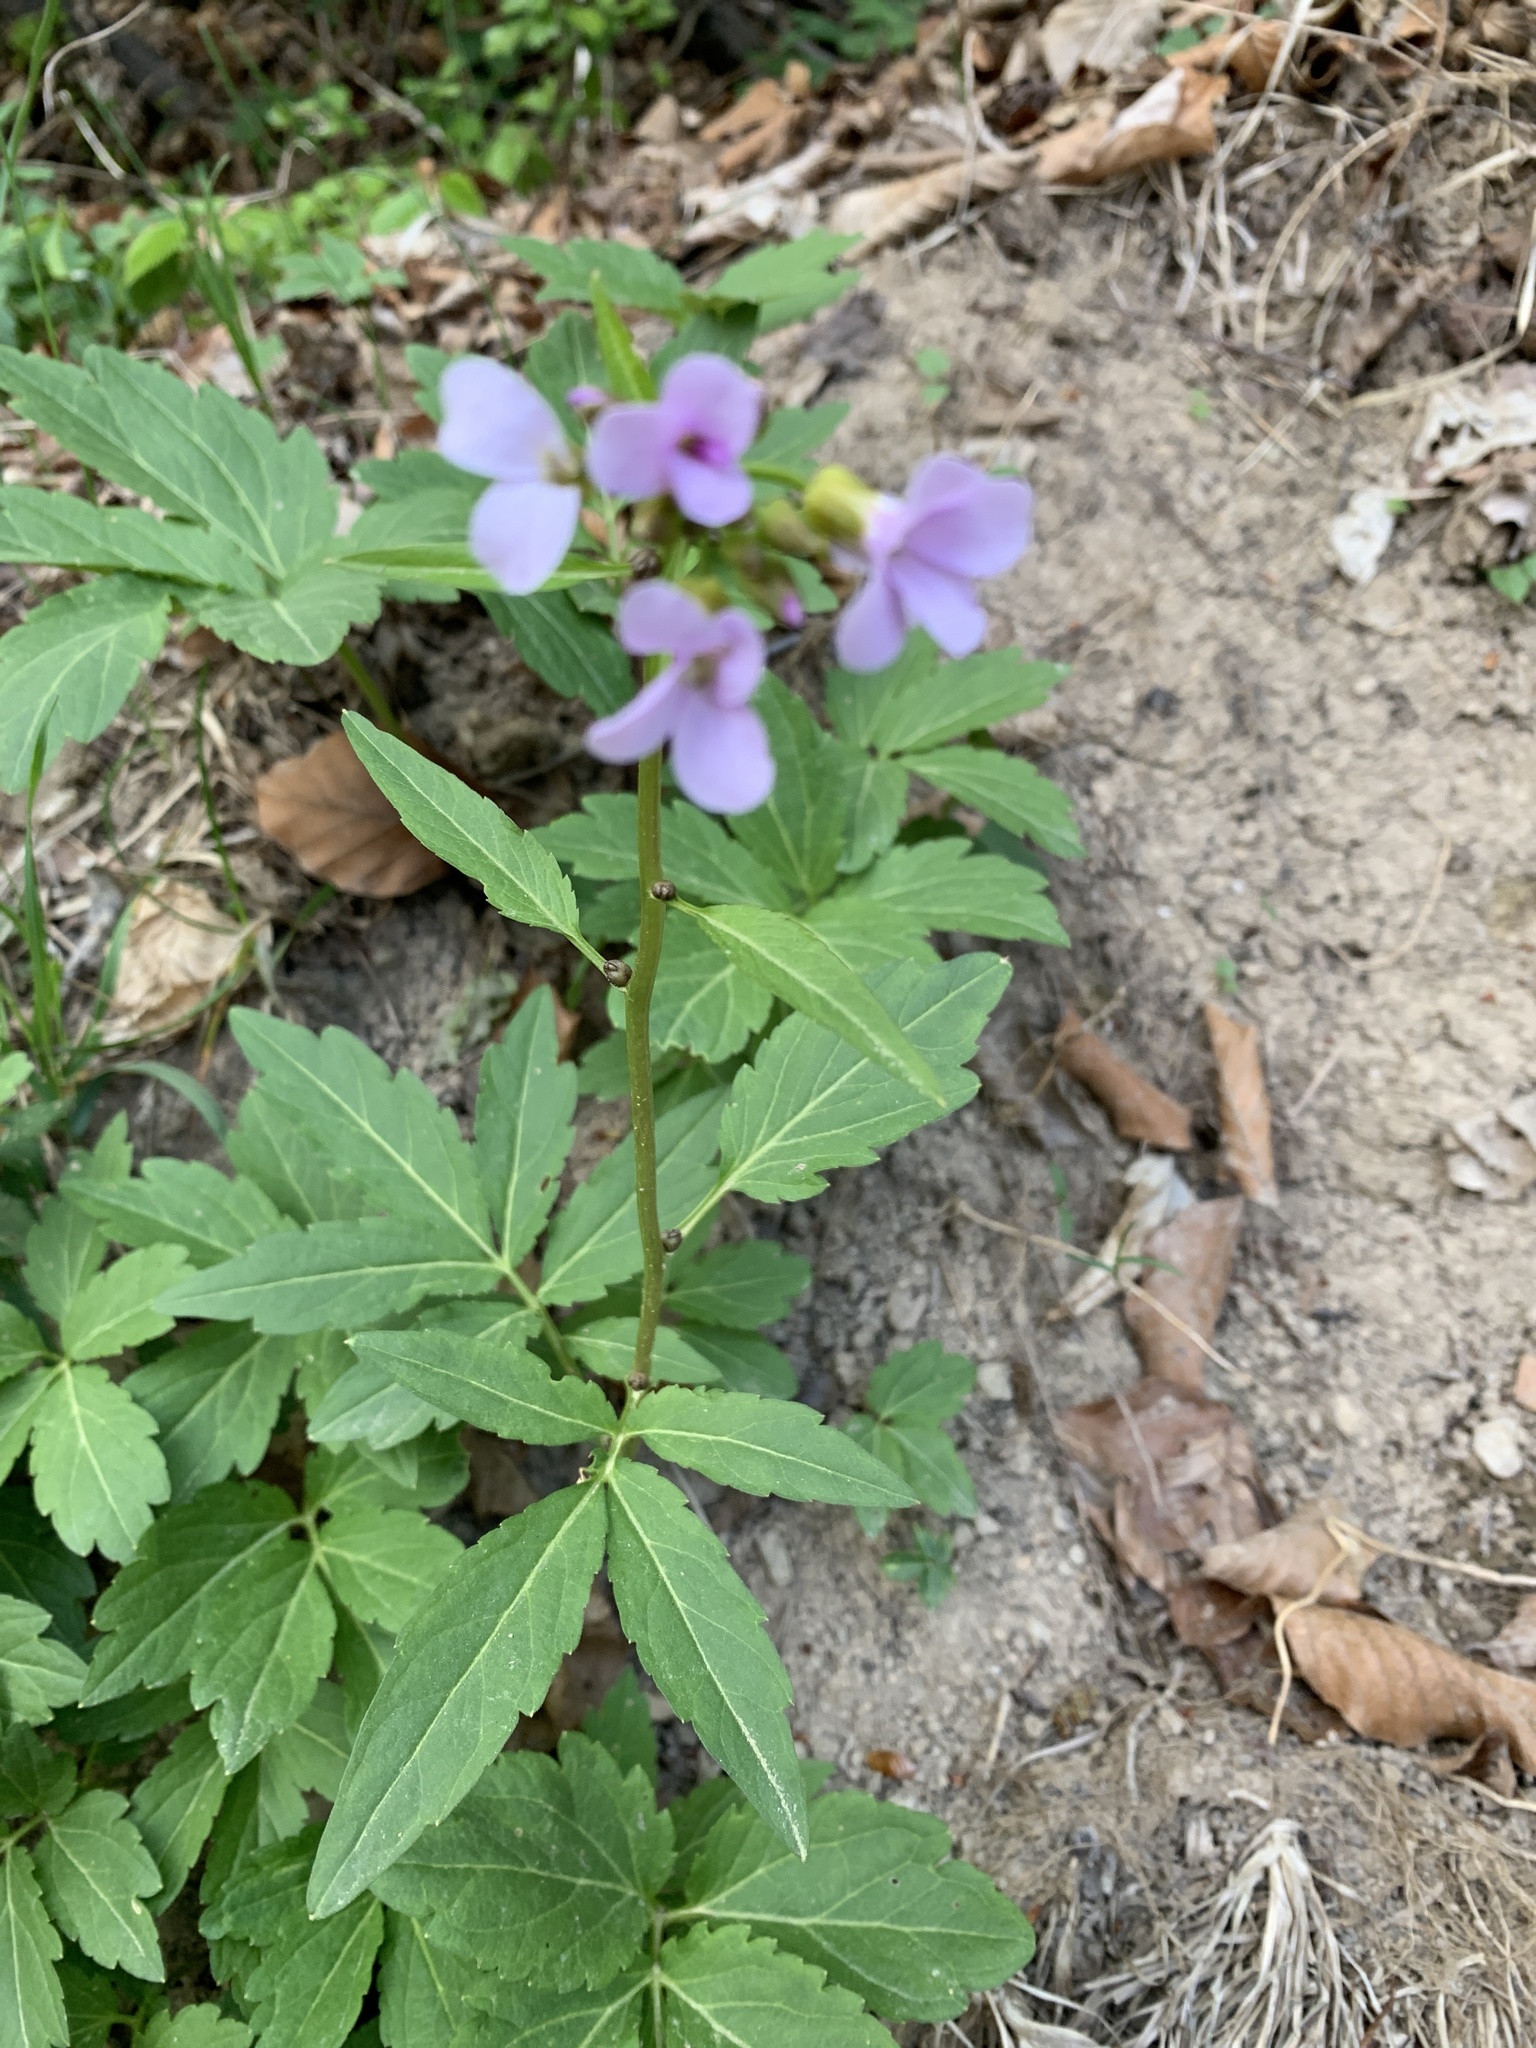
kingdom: Plantae
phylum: Tracheophyta
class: Magnoliopsida
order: Brassicales
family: Brassicaceae
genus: Cardamine
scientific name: Cardamine bulbifera
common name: Coralroot bittercress
